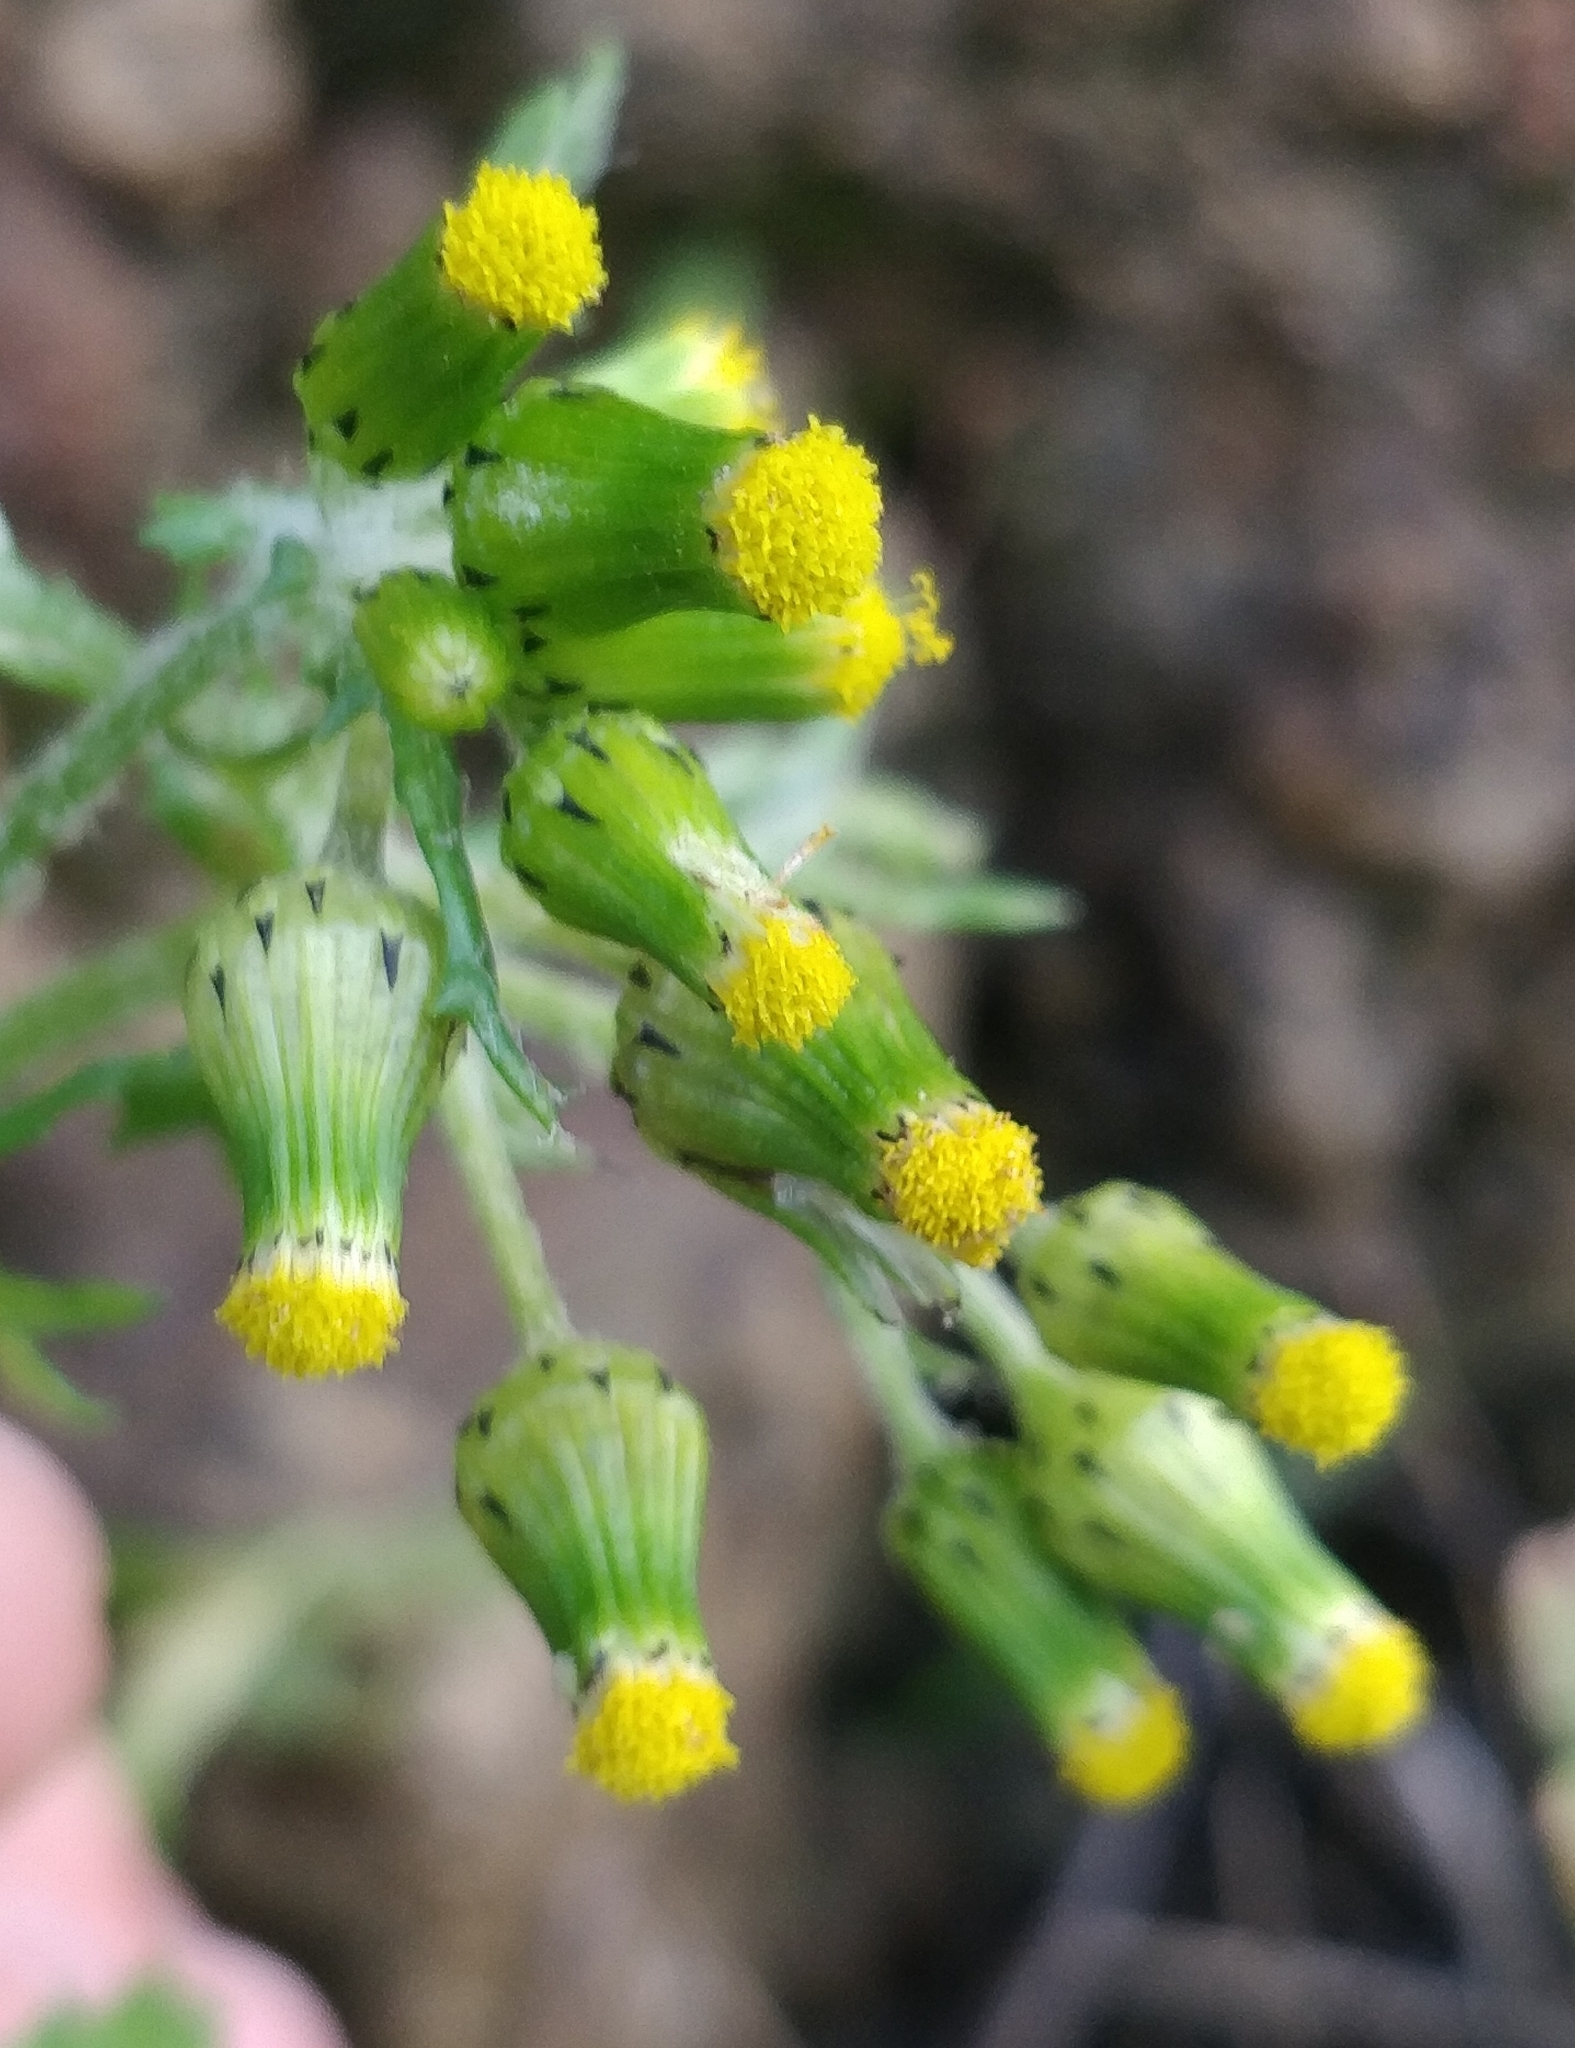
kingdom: Plantae
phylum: Tracheophyta
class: Magnoliopsida
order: Asterales
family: Asteraceae
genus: Senecio
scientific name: Senecio vulgaris
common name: Old-man-in-the-spring
